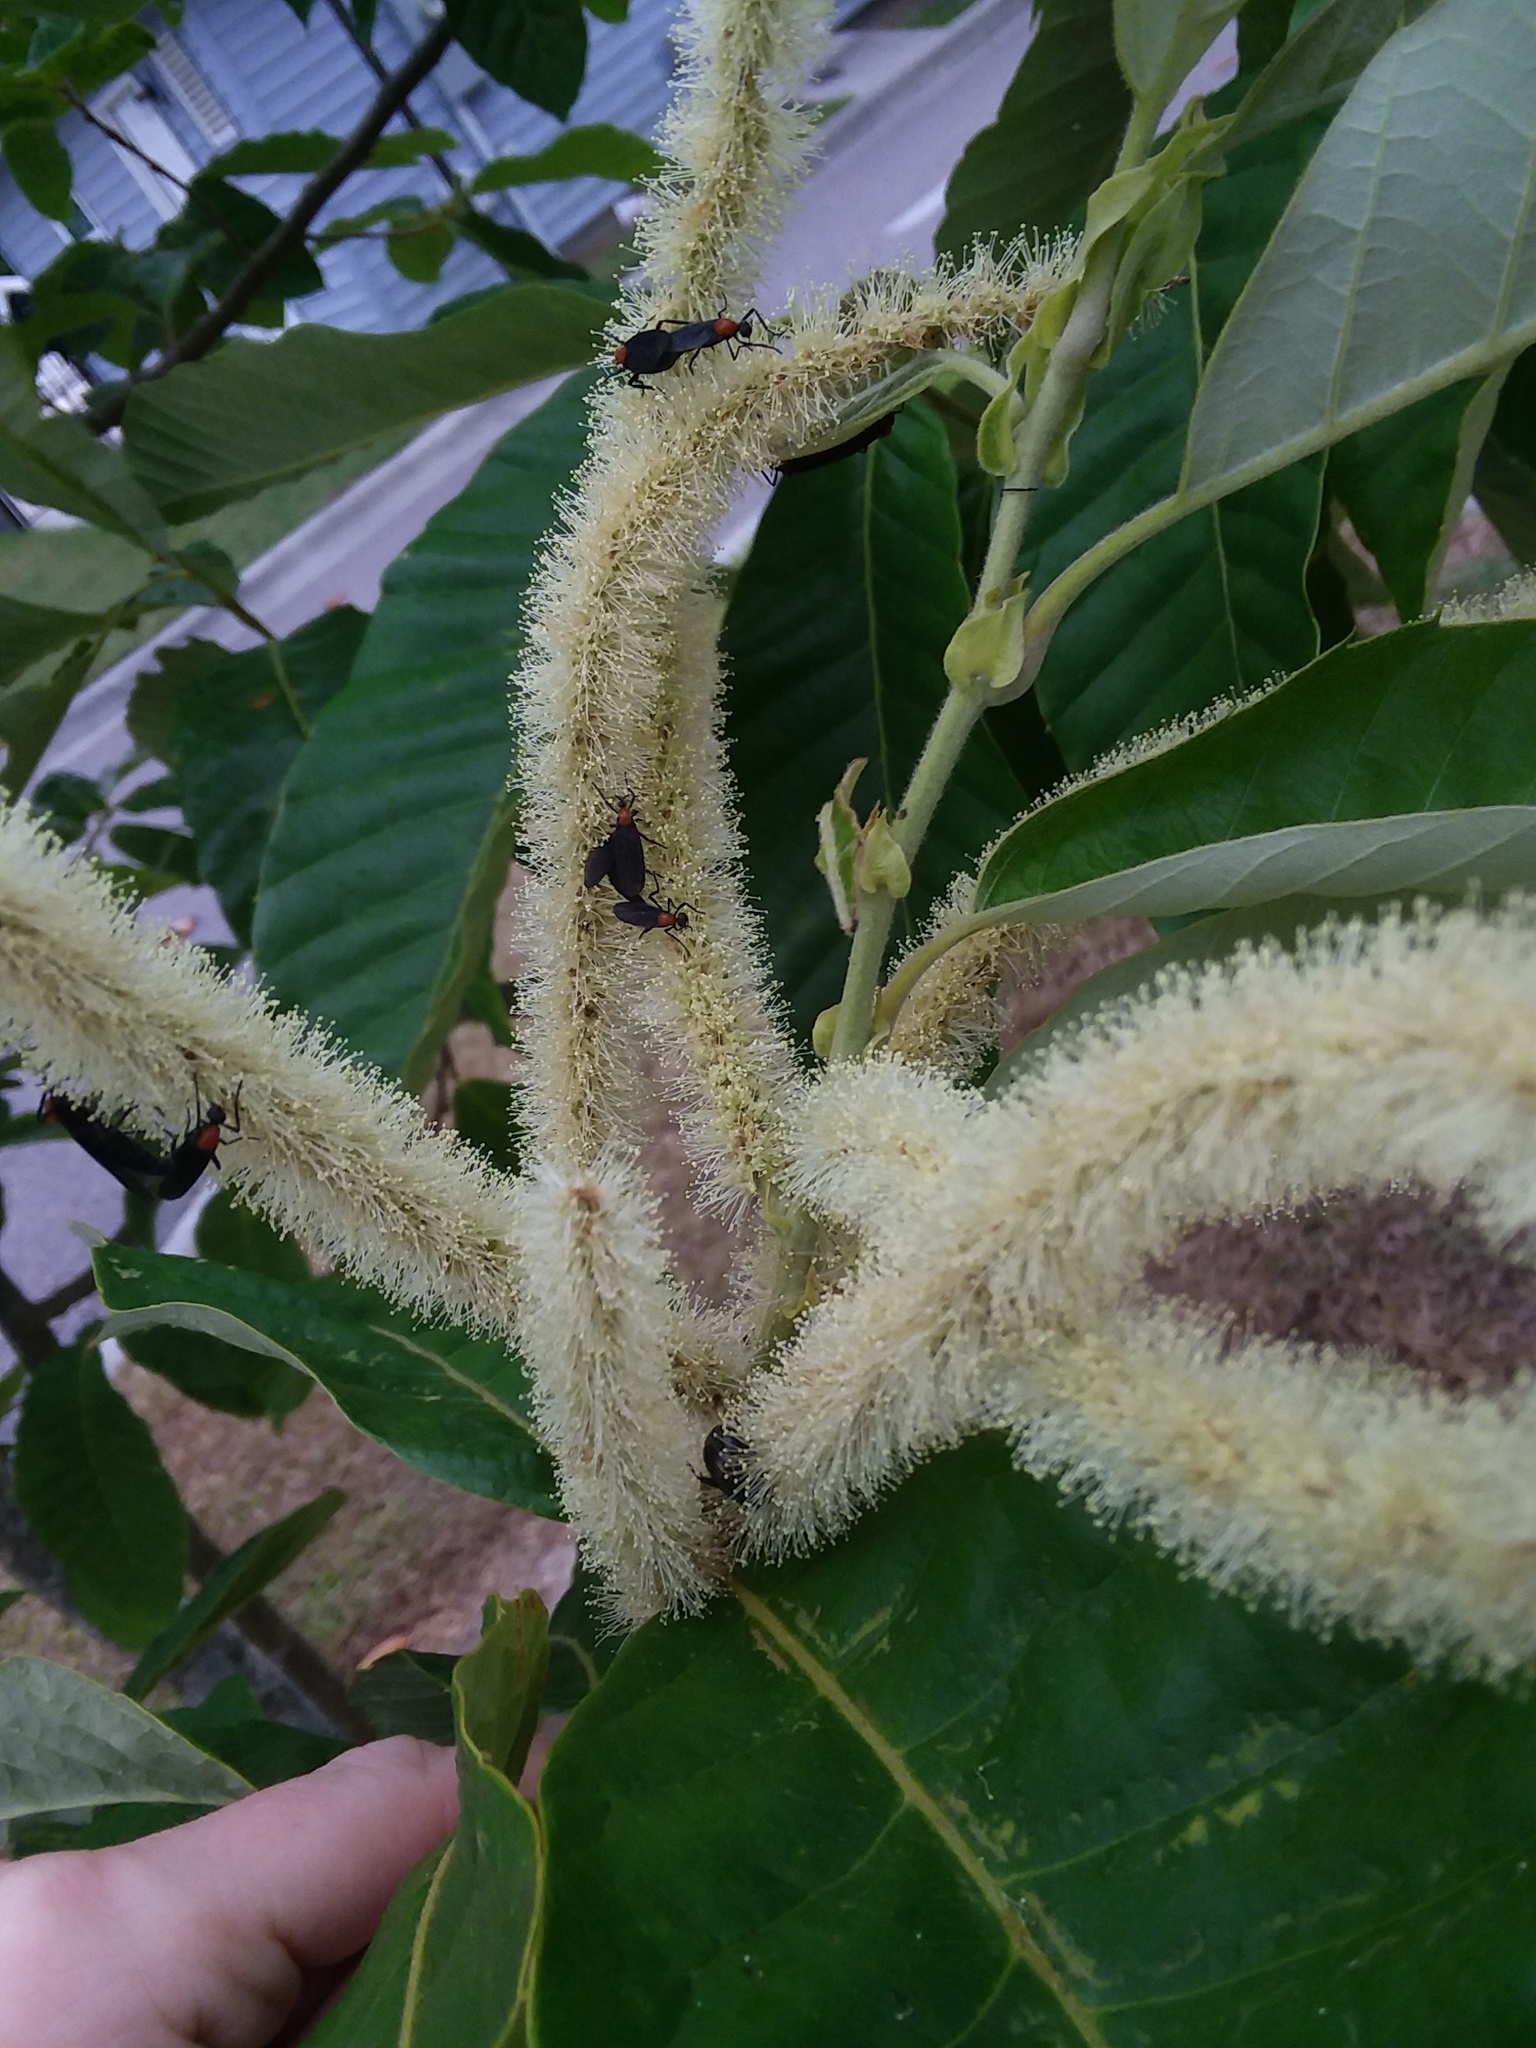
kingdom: Animalia
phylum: Arthropoda
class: Insecta
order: Diptera
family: Bibionidae
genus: Plecia
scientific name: Plecia nearctica
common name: March fly
